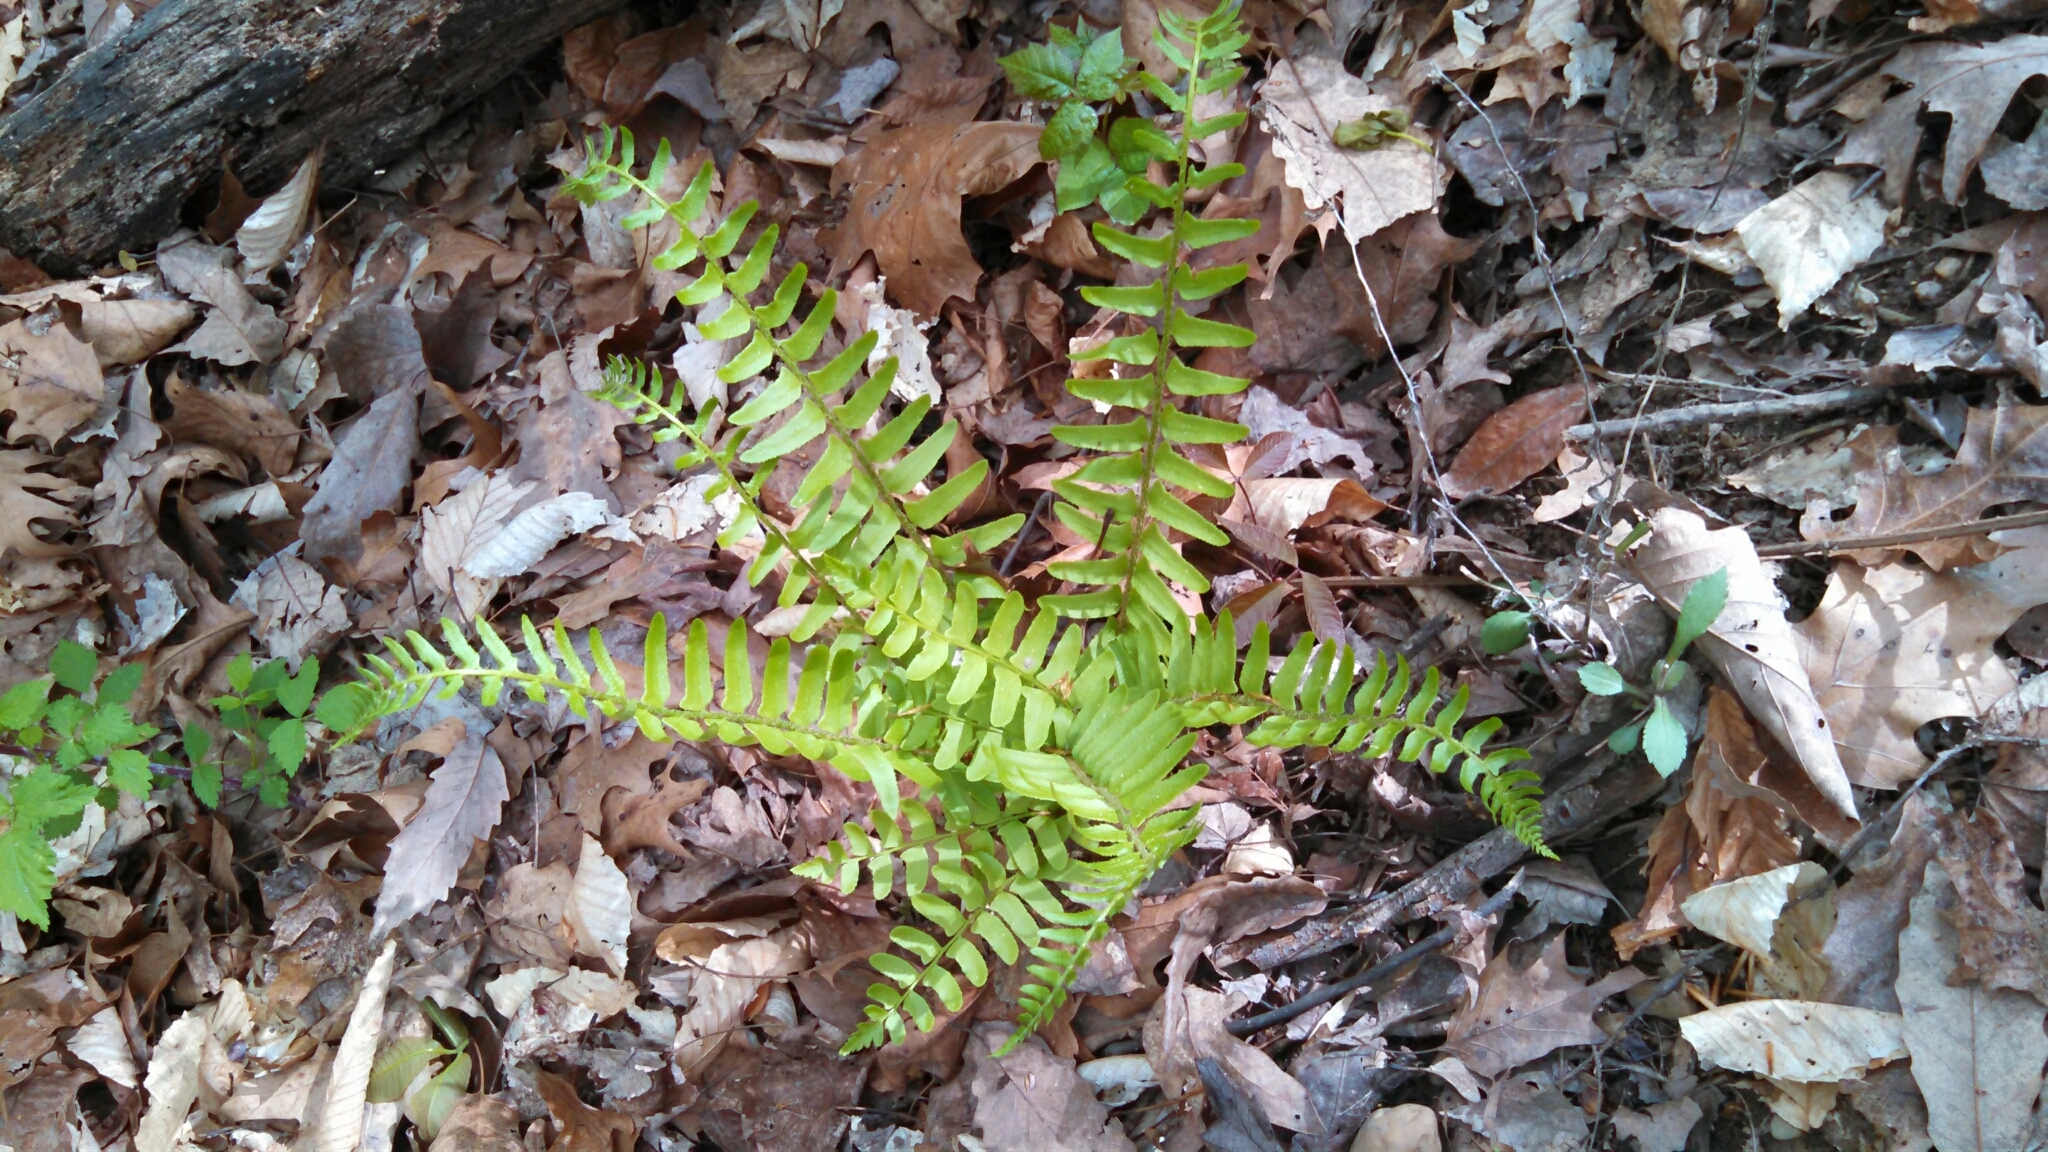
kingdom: Plantae
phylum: Tracheophyta
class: Polypodiopsida
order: Polypodiales
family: Dryopteridaceae
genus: Polystichum
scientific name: Polystichum acrostichoides
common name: Christmas fern
